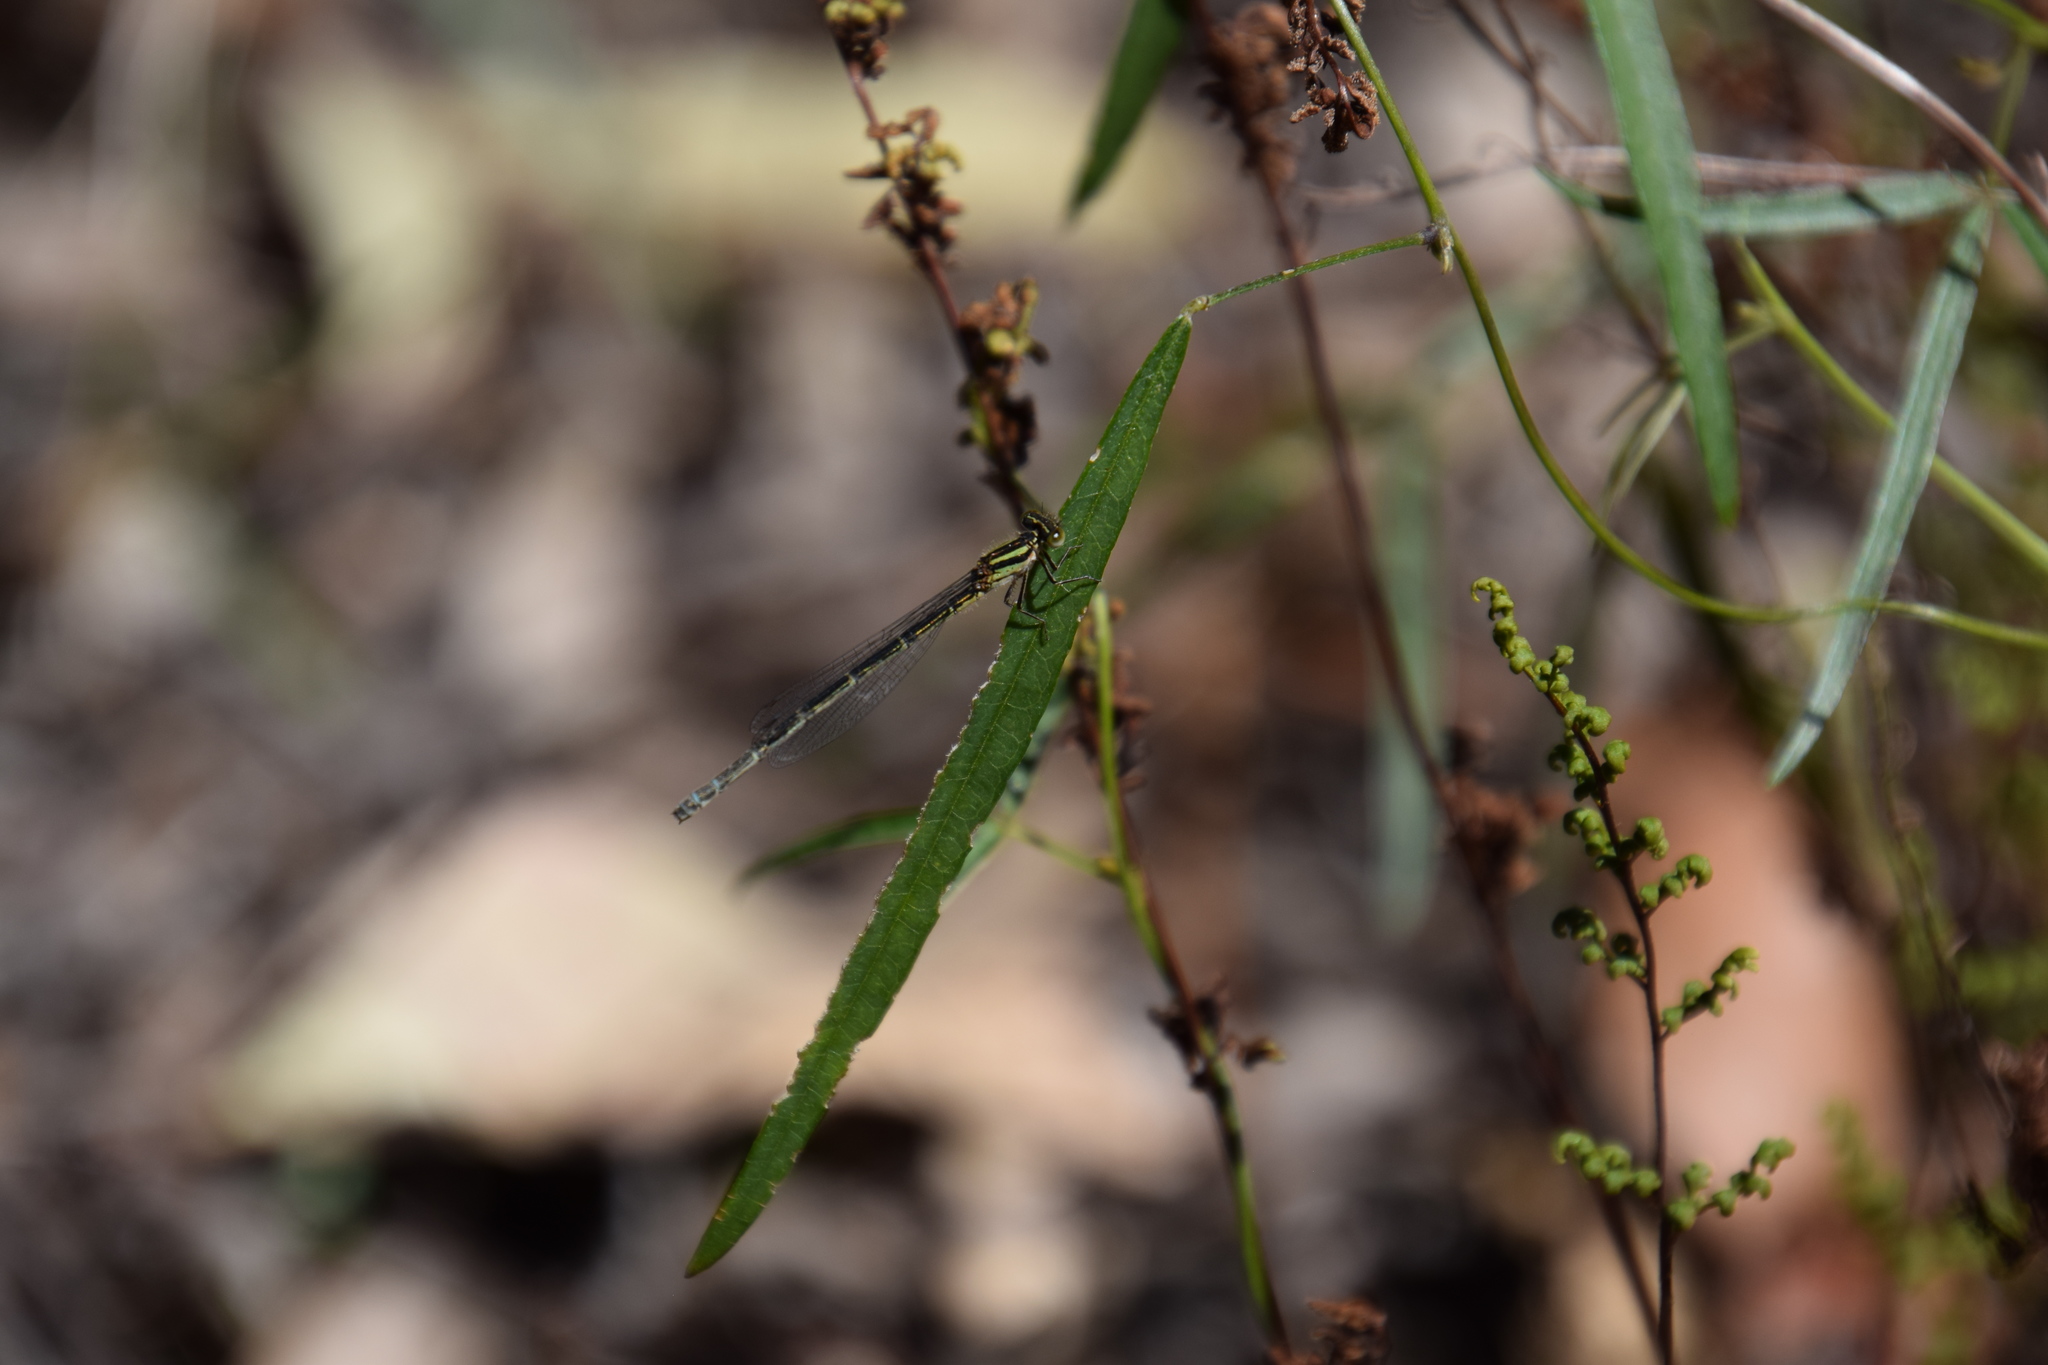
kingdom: Animalia
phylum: Arthropoda
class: Insecta
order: Odonata
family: Coenagrionidae
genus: Austroagrion
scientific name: Austroagrion watsoni
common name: Eastern billabongfly
